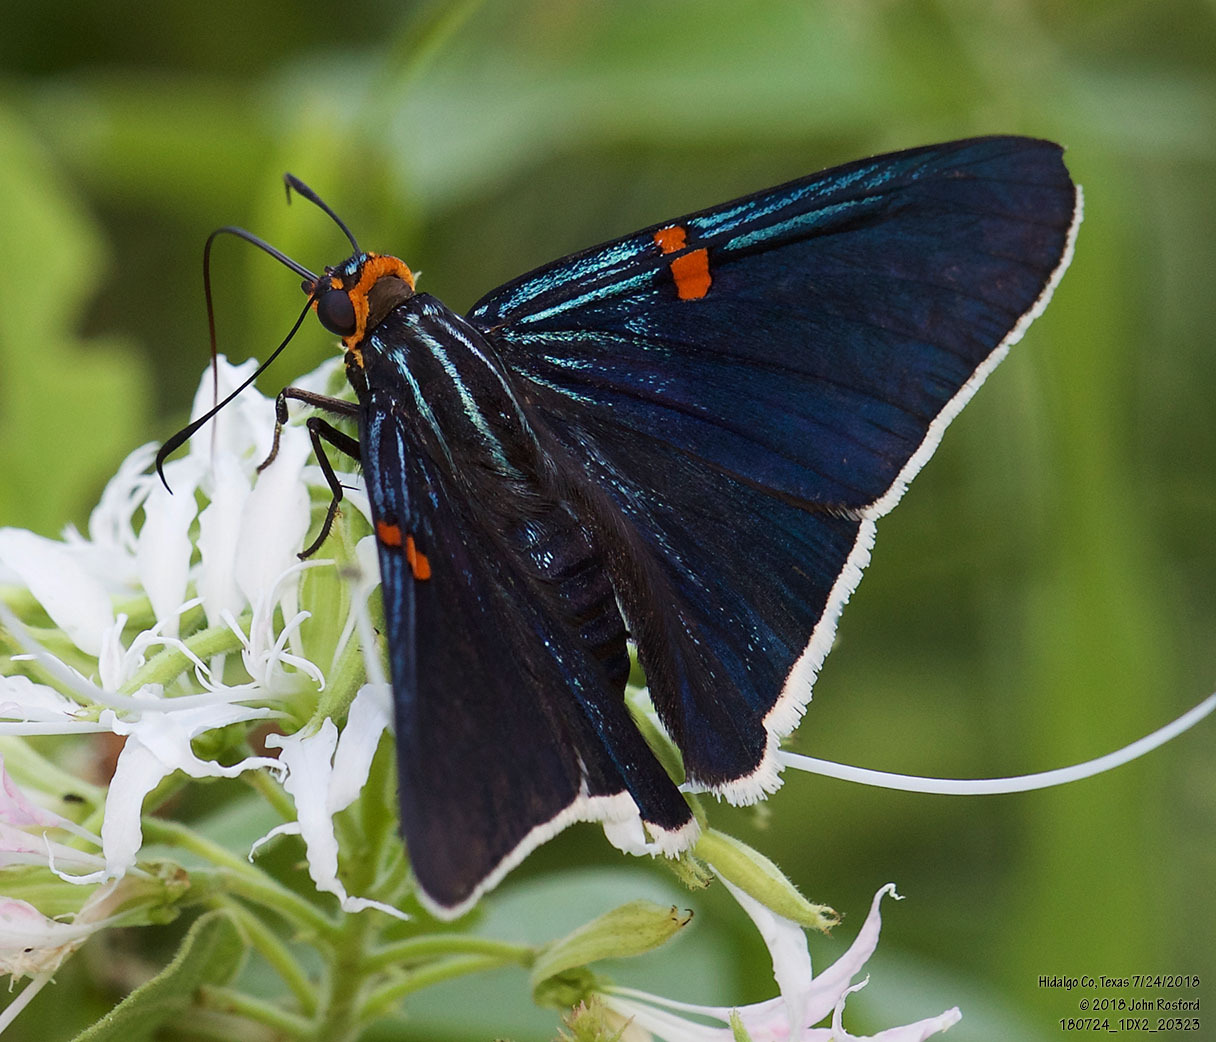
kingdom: Animalia
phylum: Arthropoda
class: Insecta
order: Lepidoptera
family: Hesperiidae
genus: Phocides
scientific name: Phocides lilea
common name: Guava skipper
